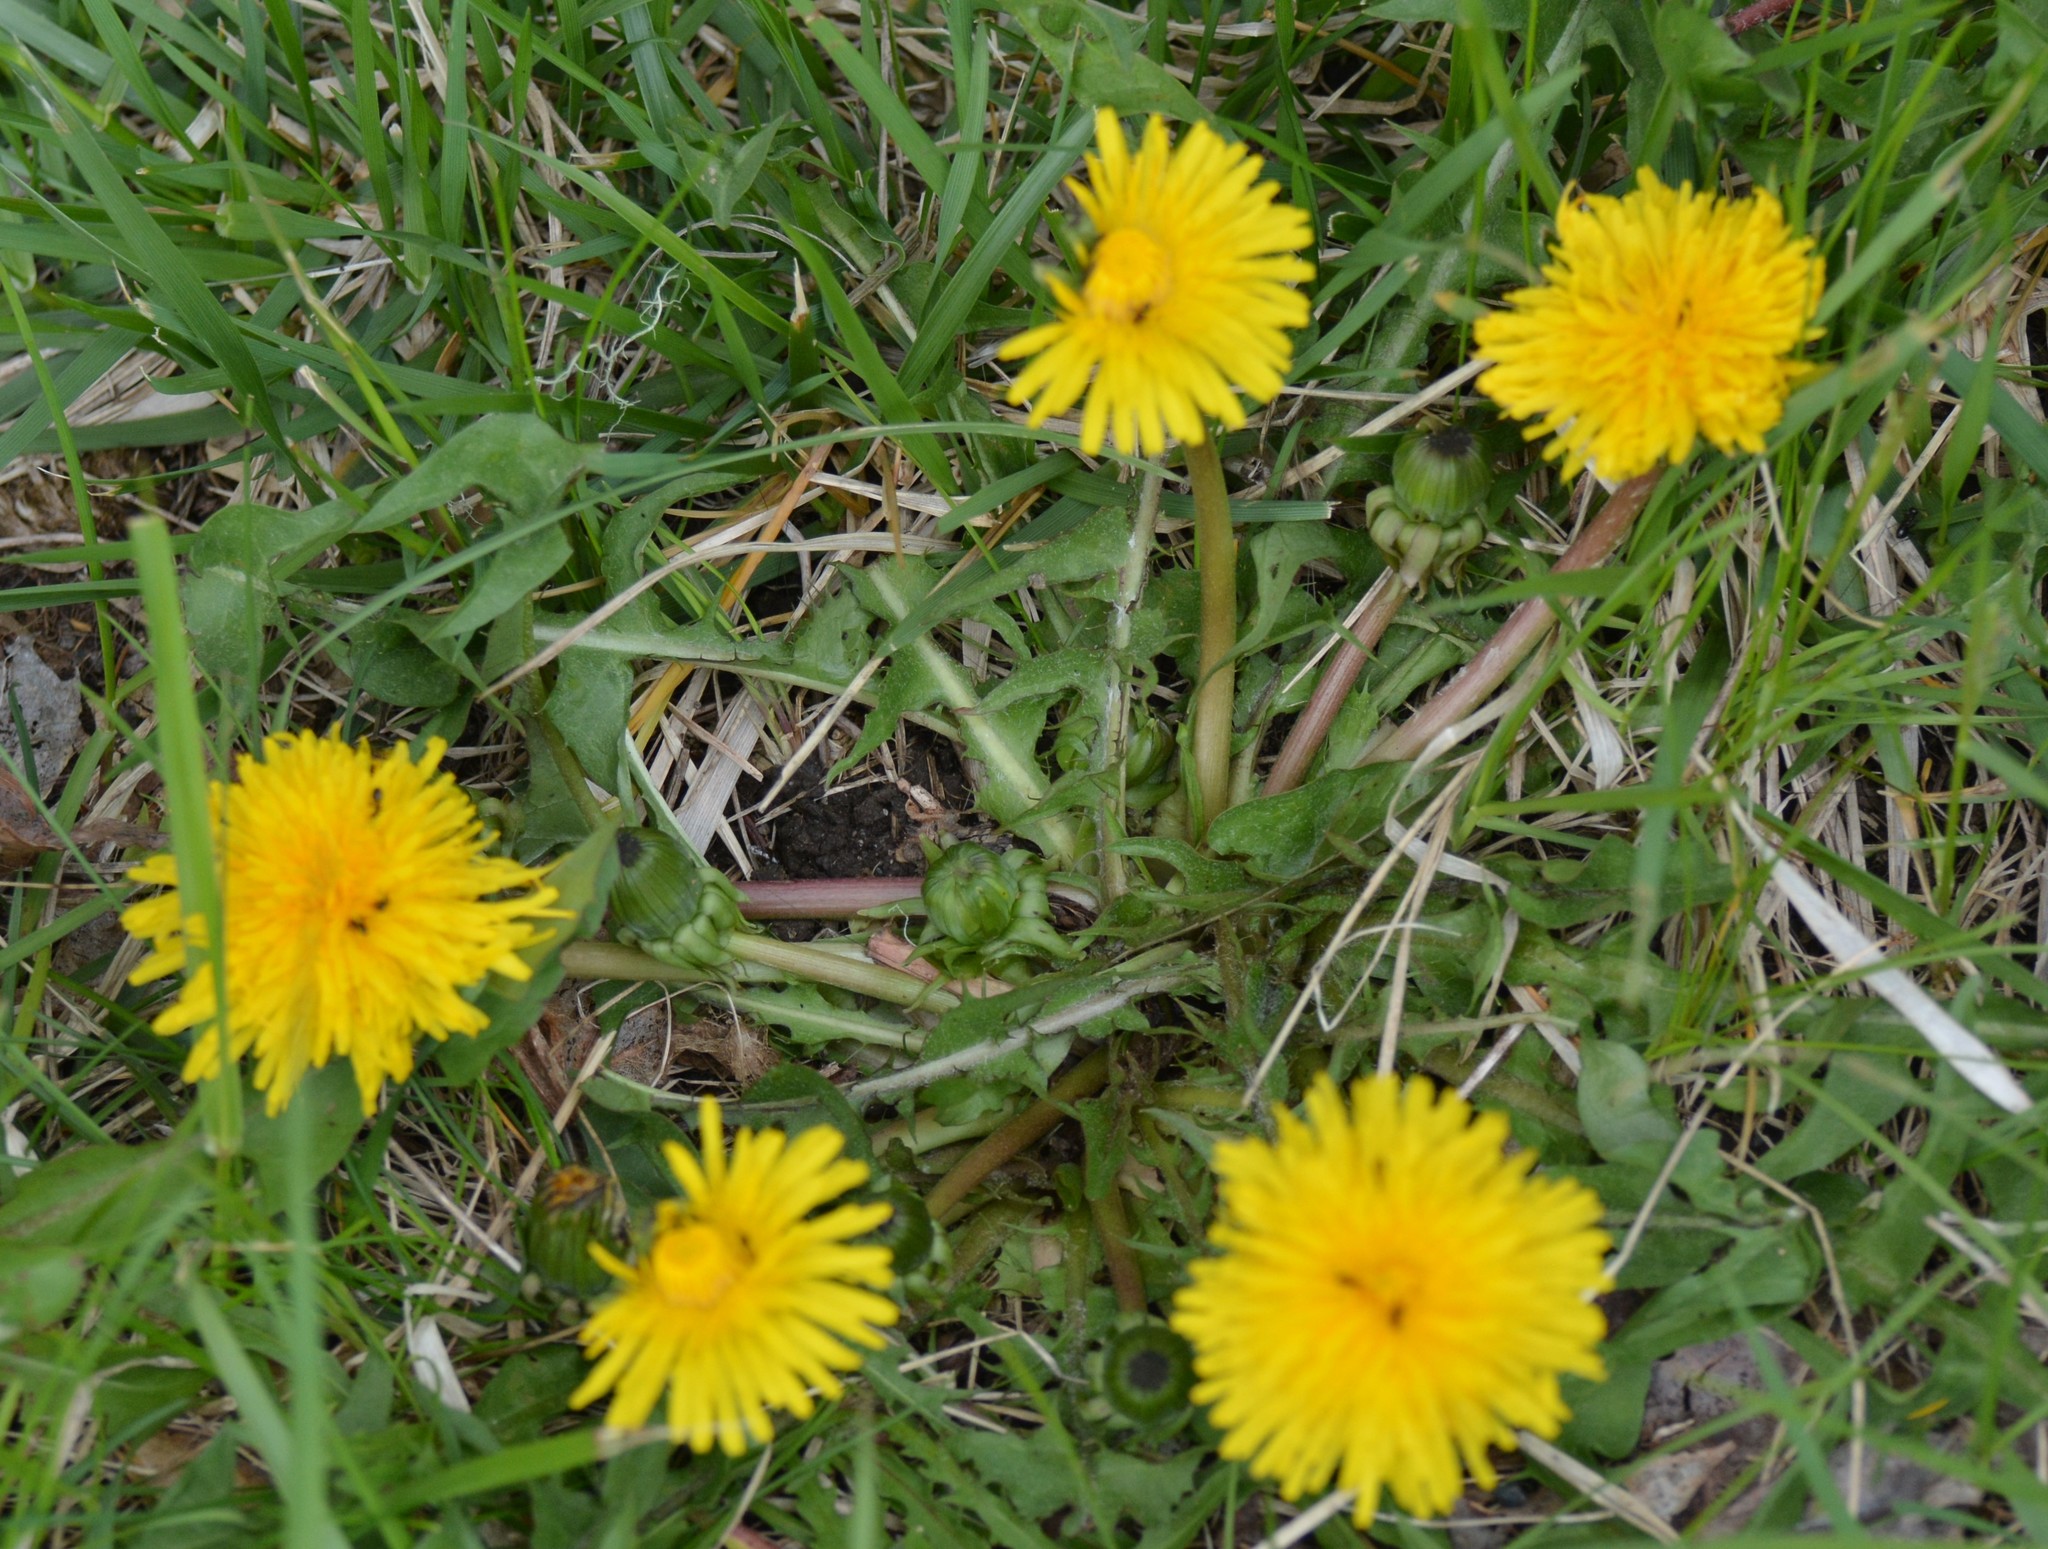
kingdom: Plantae
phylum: Tracheophyta
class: Magnoliopsida
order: Asterales
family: Asteraceae
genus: Taraxacum
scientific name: Taraxacum officinale
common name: Common dandelion
